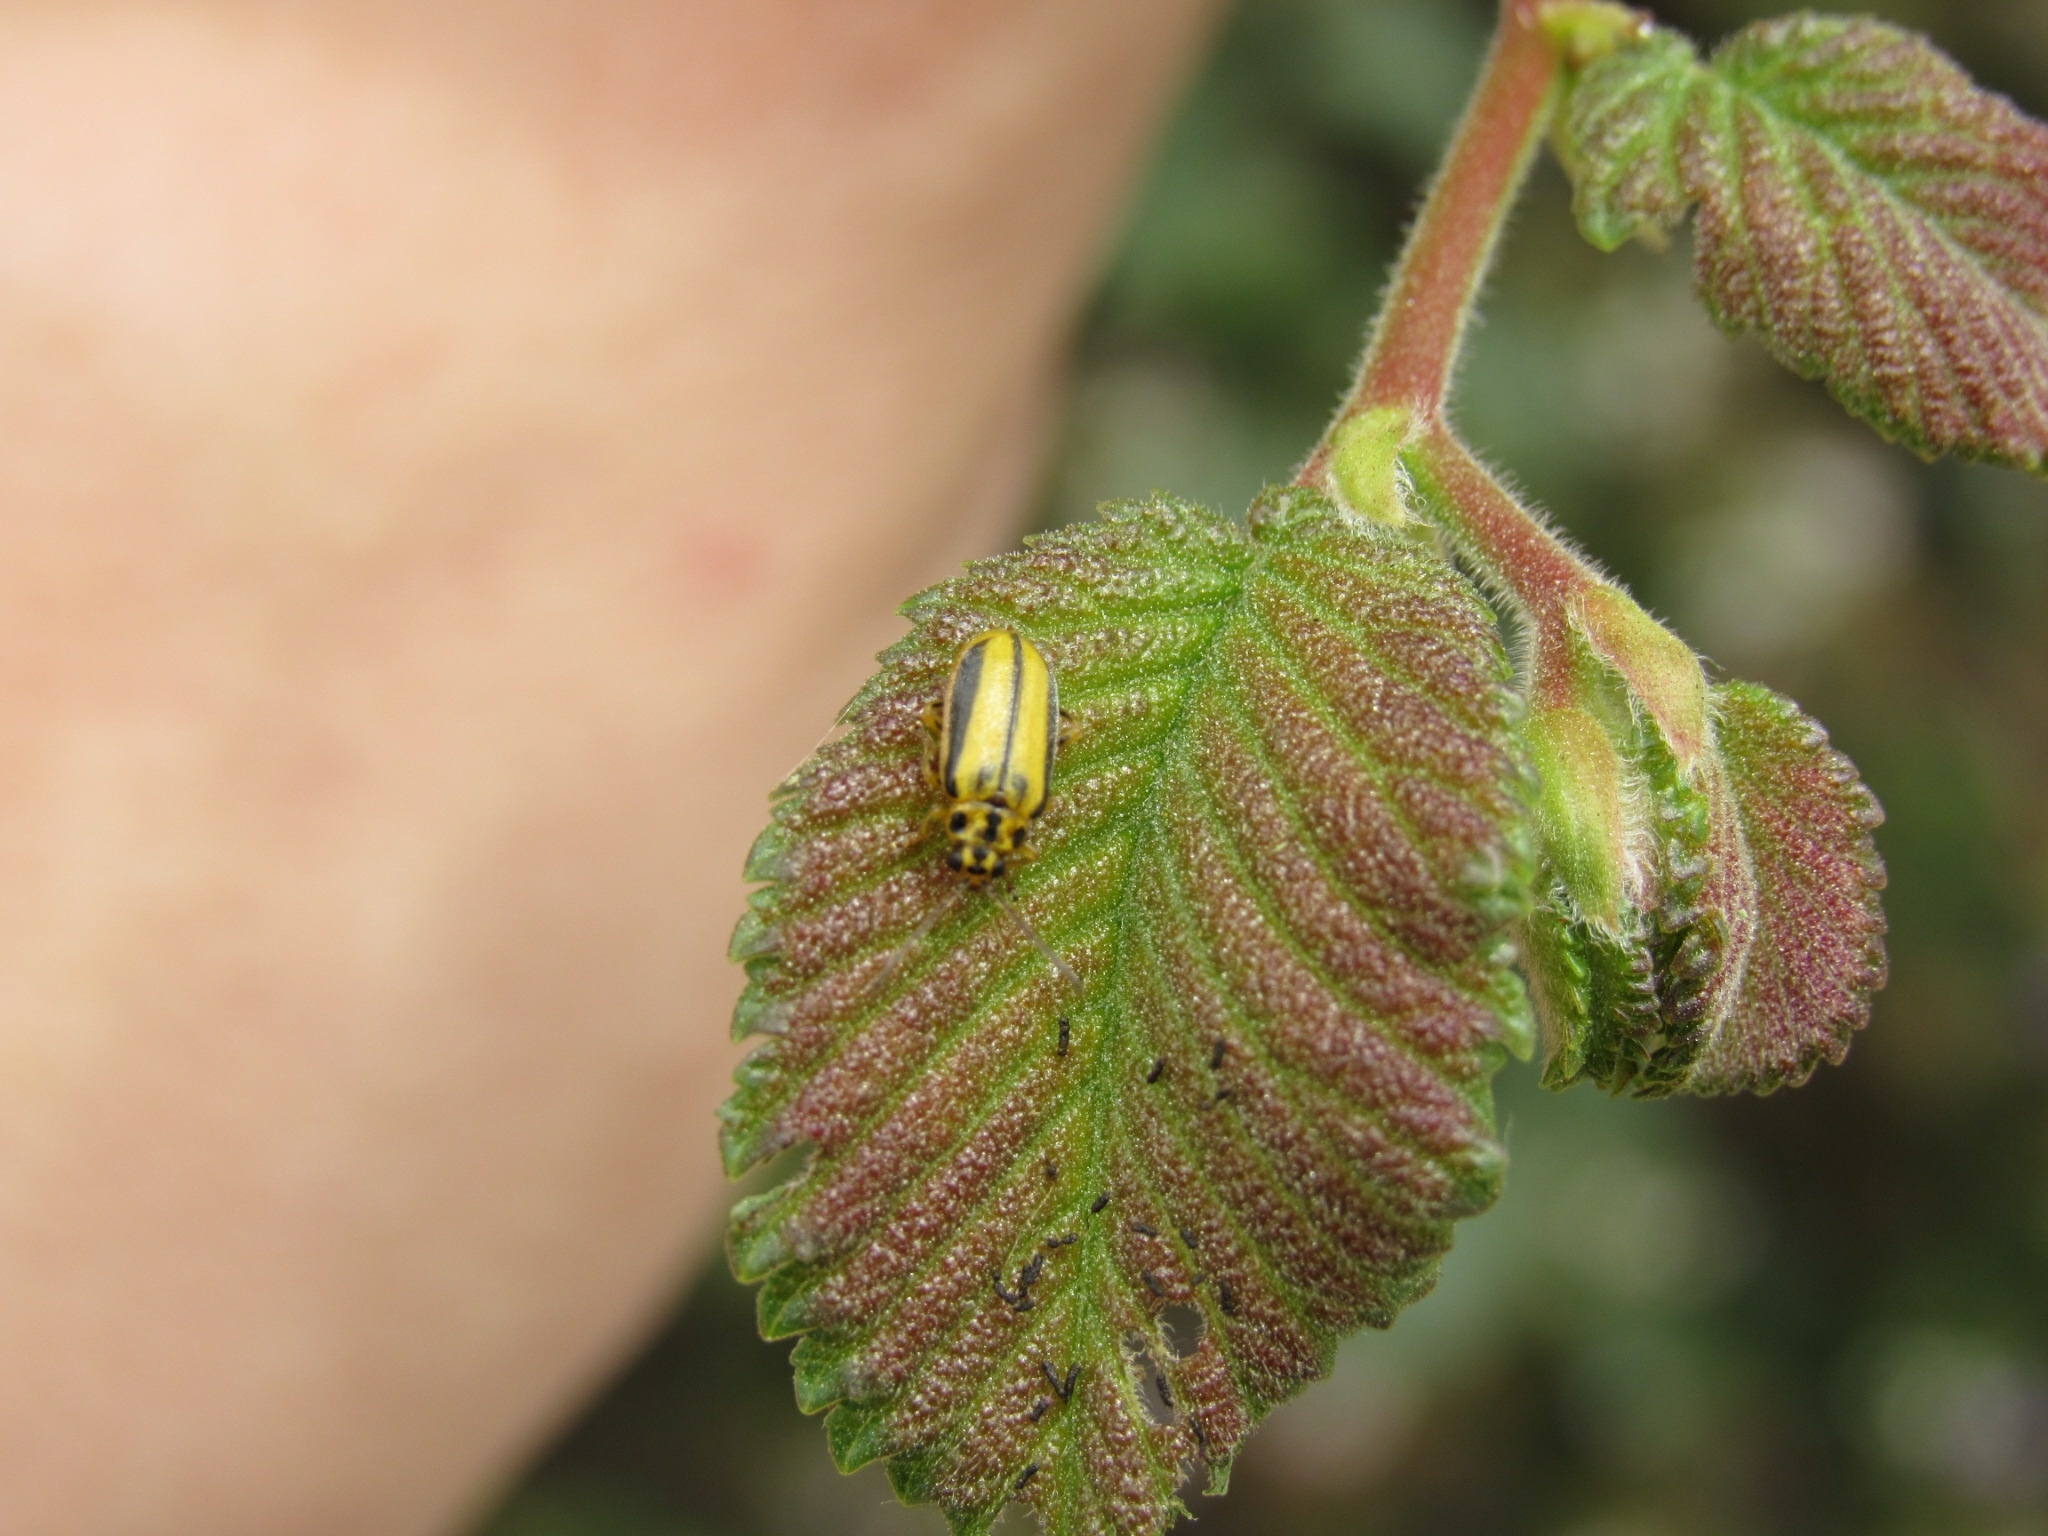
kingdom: Animalia
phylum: Arthropoda
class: Insecta
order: Coleoptera
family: Chrysomelidae
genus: Xanthogaleruca
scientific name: Xanthogaleruca luteola
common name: Elm leaf beetle
